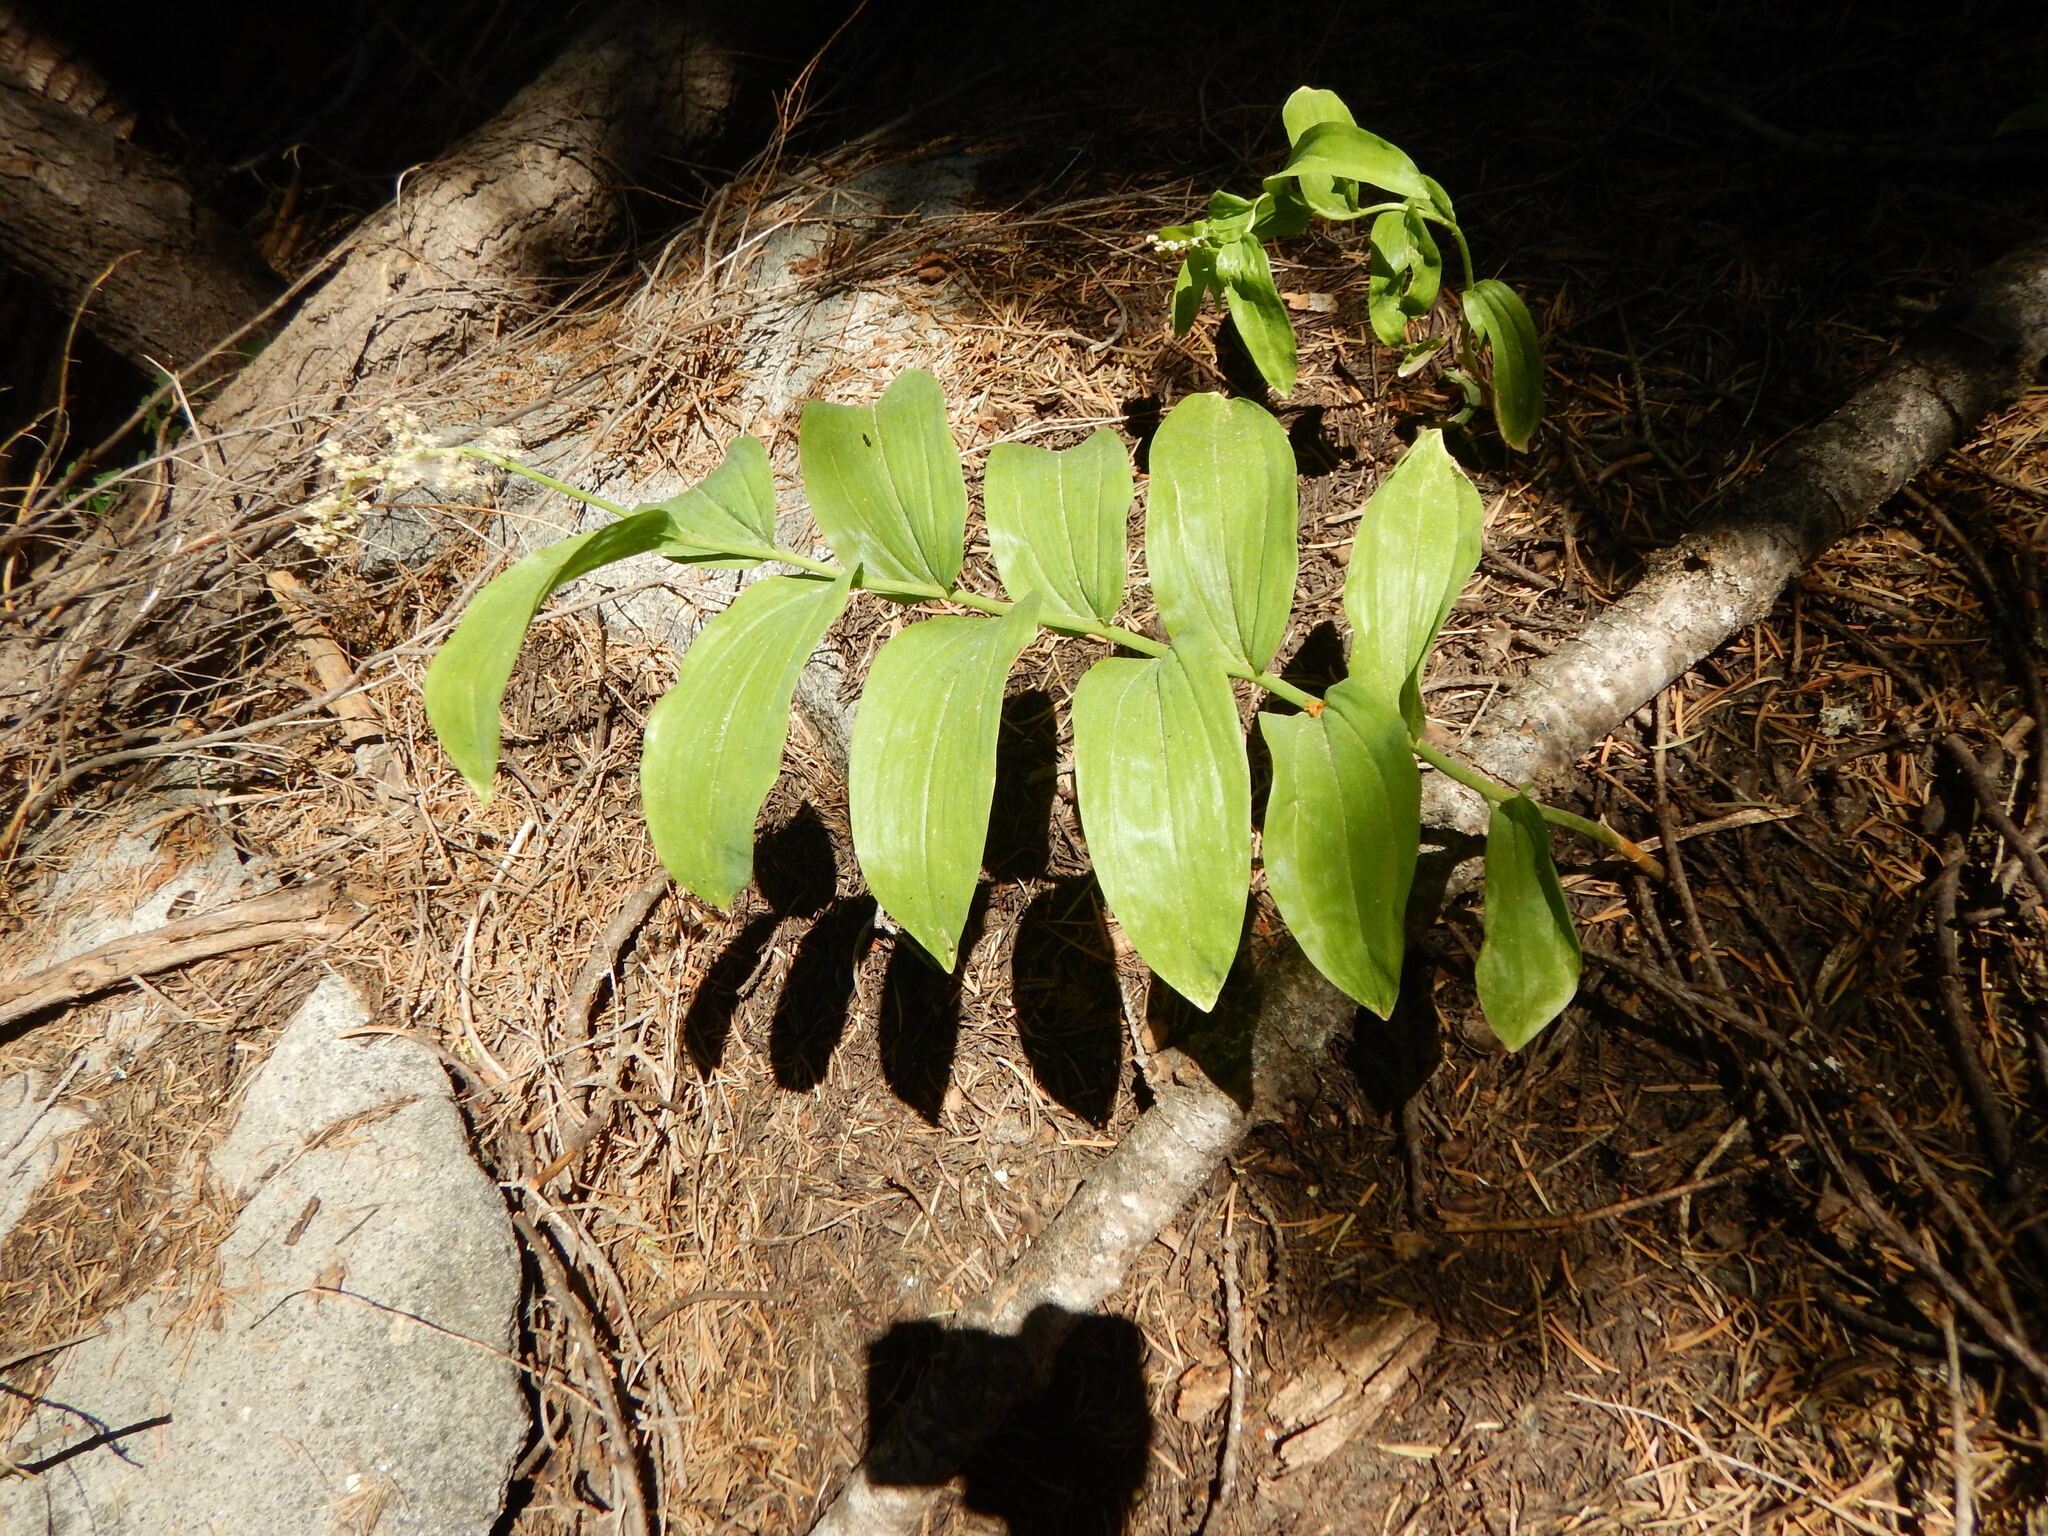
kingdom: Plantae
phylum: Tracheophyta
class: Liliopsida
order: Asparagales
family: Asparagaceae
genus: Maianthemum
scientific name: Maianthemum racemosum
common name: False spikenard
